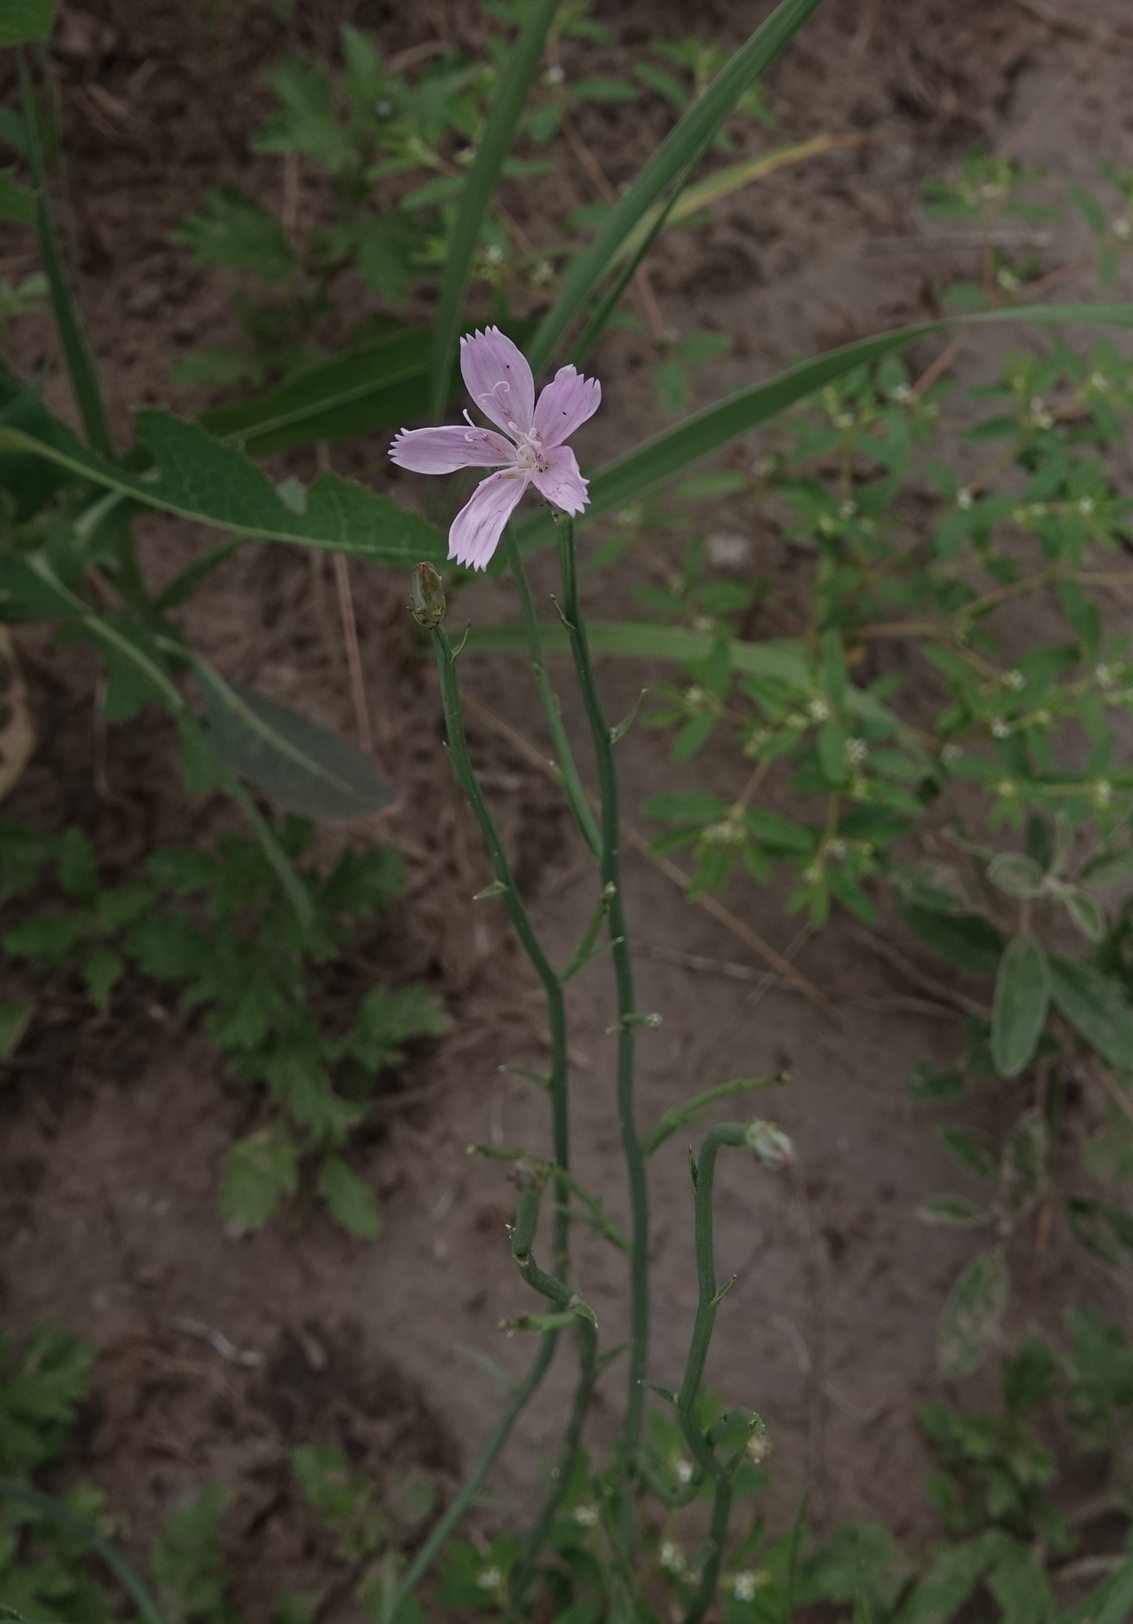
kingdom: Plantae
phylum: Tracheophyta
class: Magnoliopsida
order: Asterales
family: Asteraceae
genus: Lygodesmia
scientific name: Lygodesmia juncea
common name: Common skeletonweed
